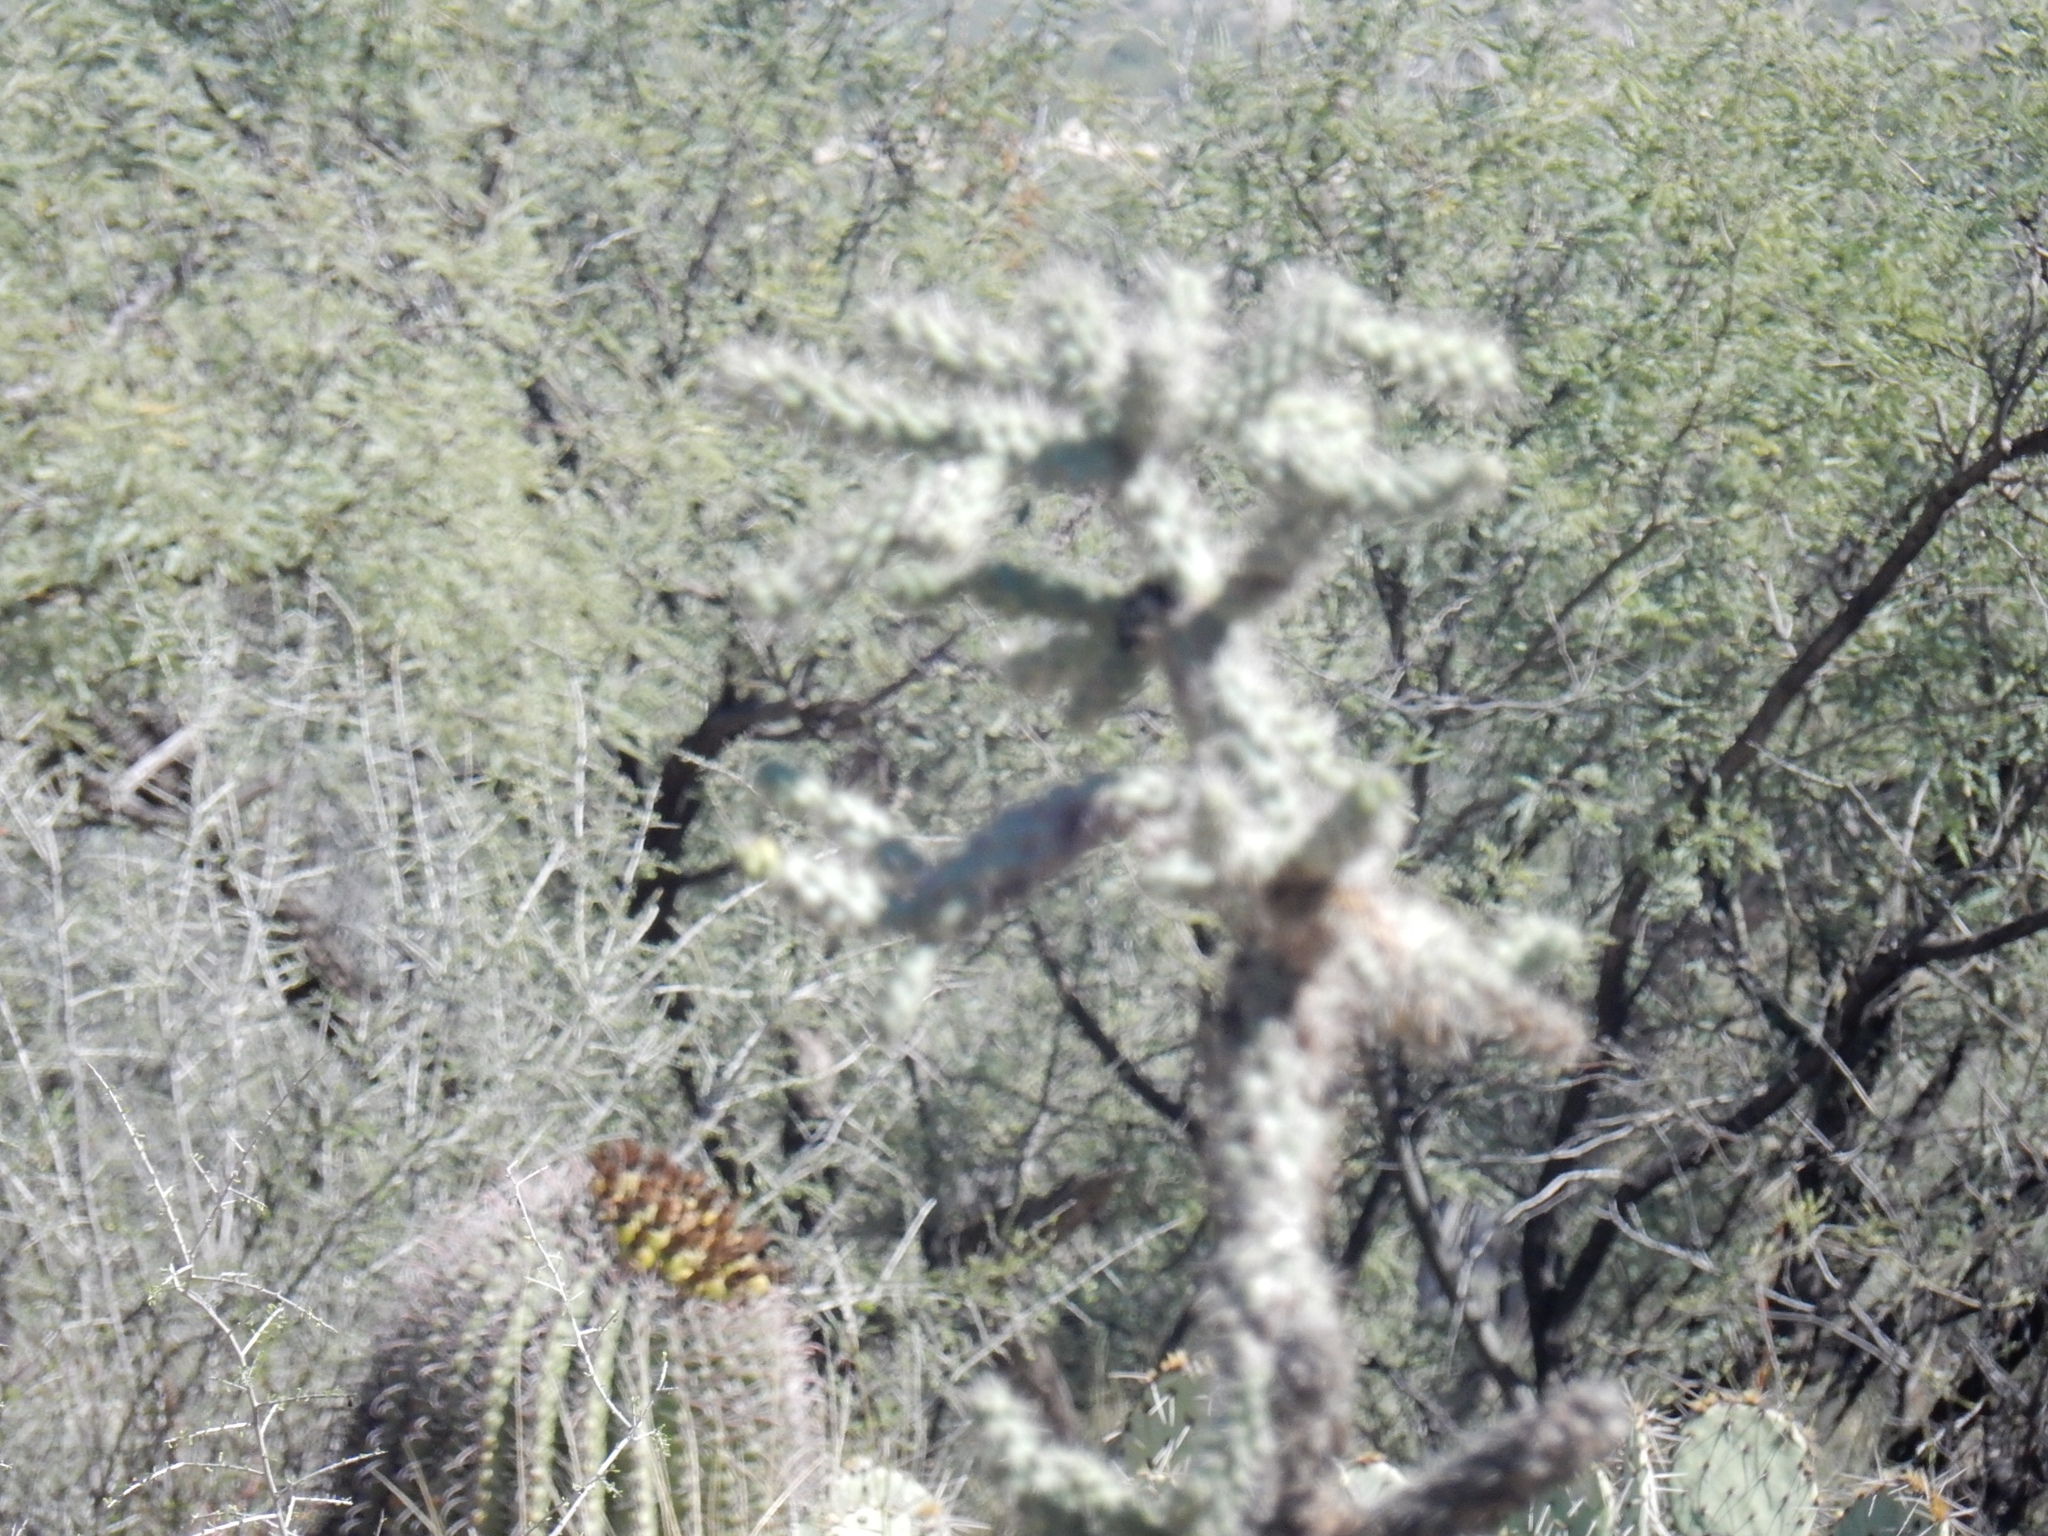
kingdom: Plantae
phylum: Tracheophyta
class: Magnoliopsida
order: Caryophyllales
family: Cactaceae
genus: Cylindropuntia
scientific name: Cylindropuntia fulgida
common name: Jumping cholla
